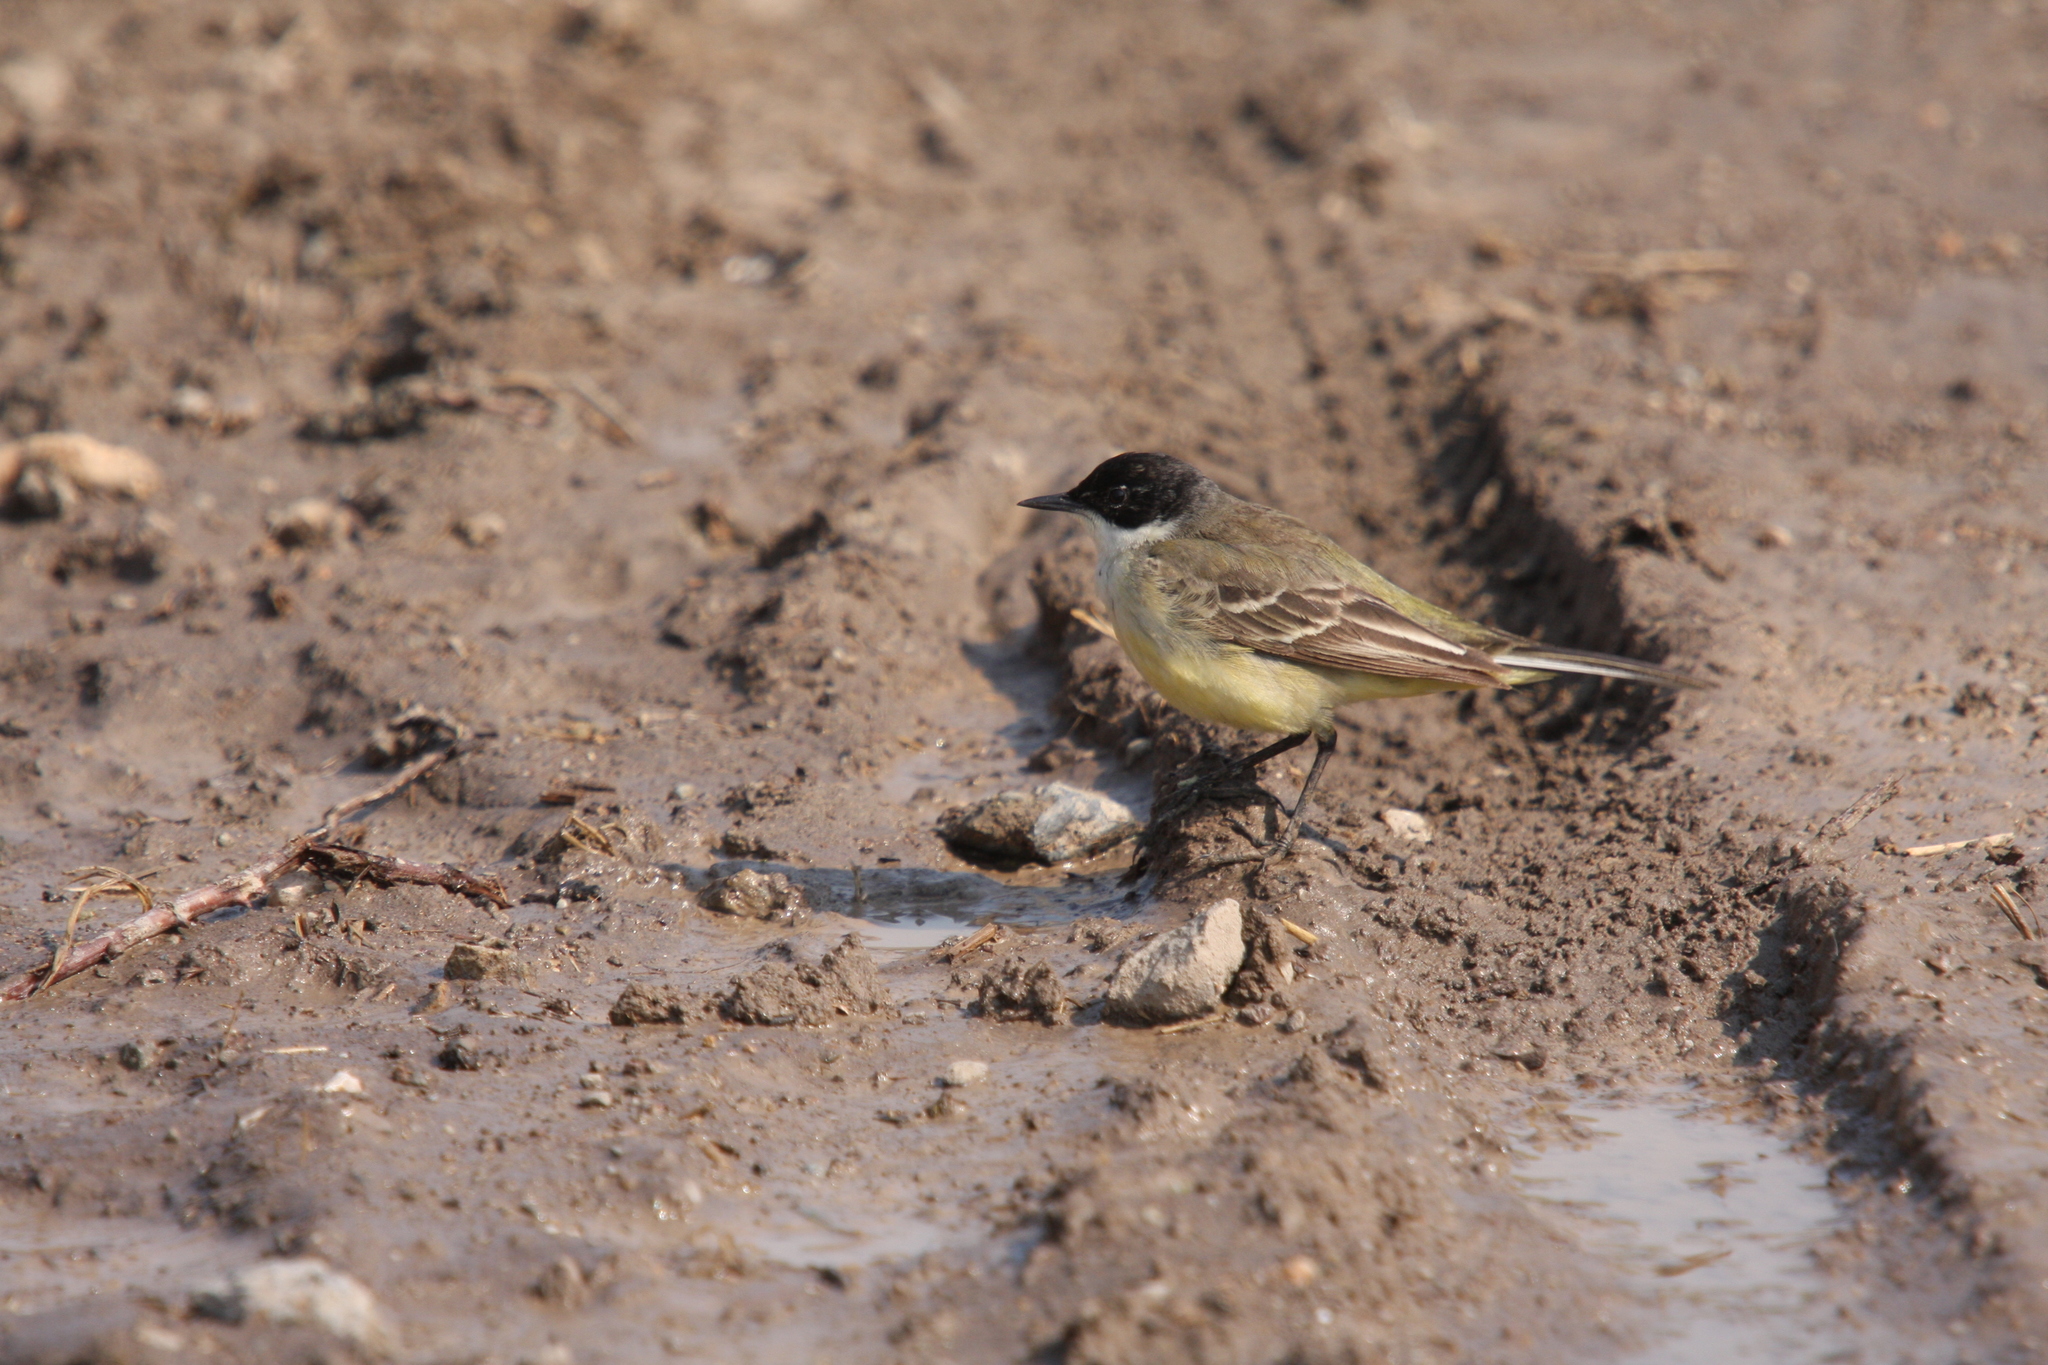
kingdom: Animalia
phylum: Chordata
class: Aves
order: Passeriformes
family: Motacillidae
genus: Motacilla
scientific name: Motacilla flava
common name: Western yellow wagtail
